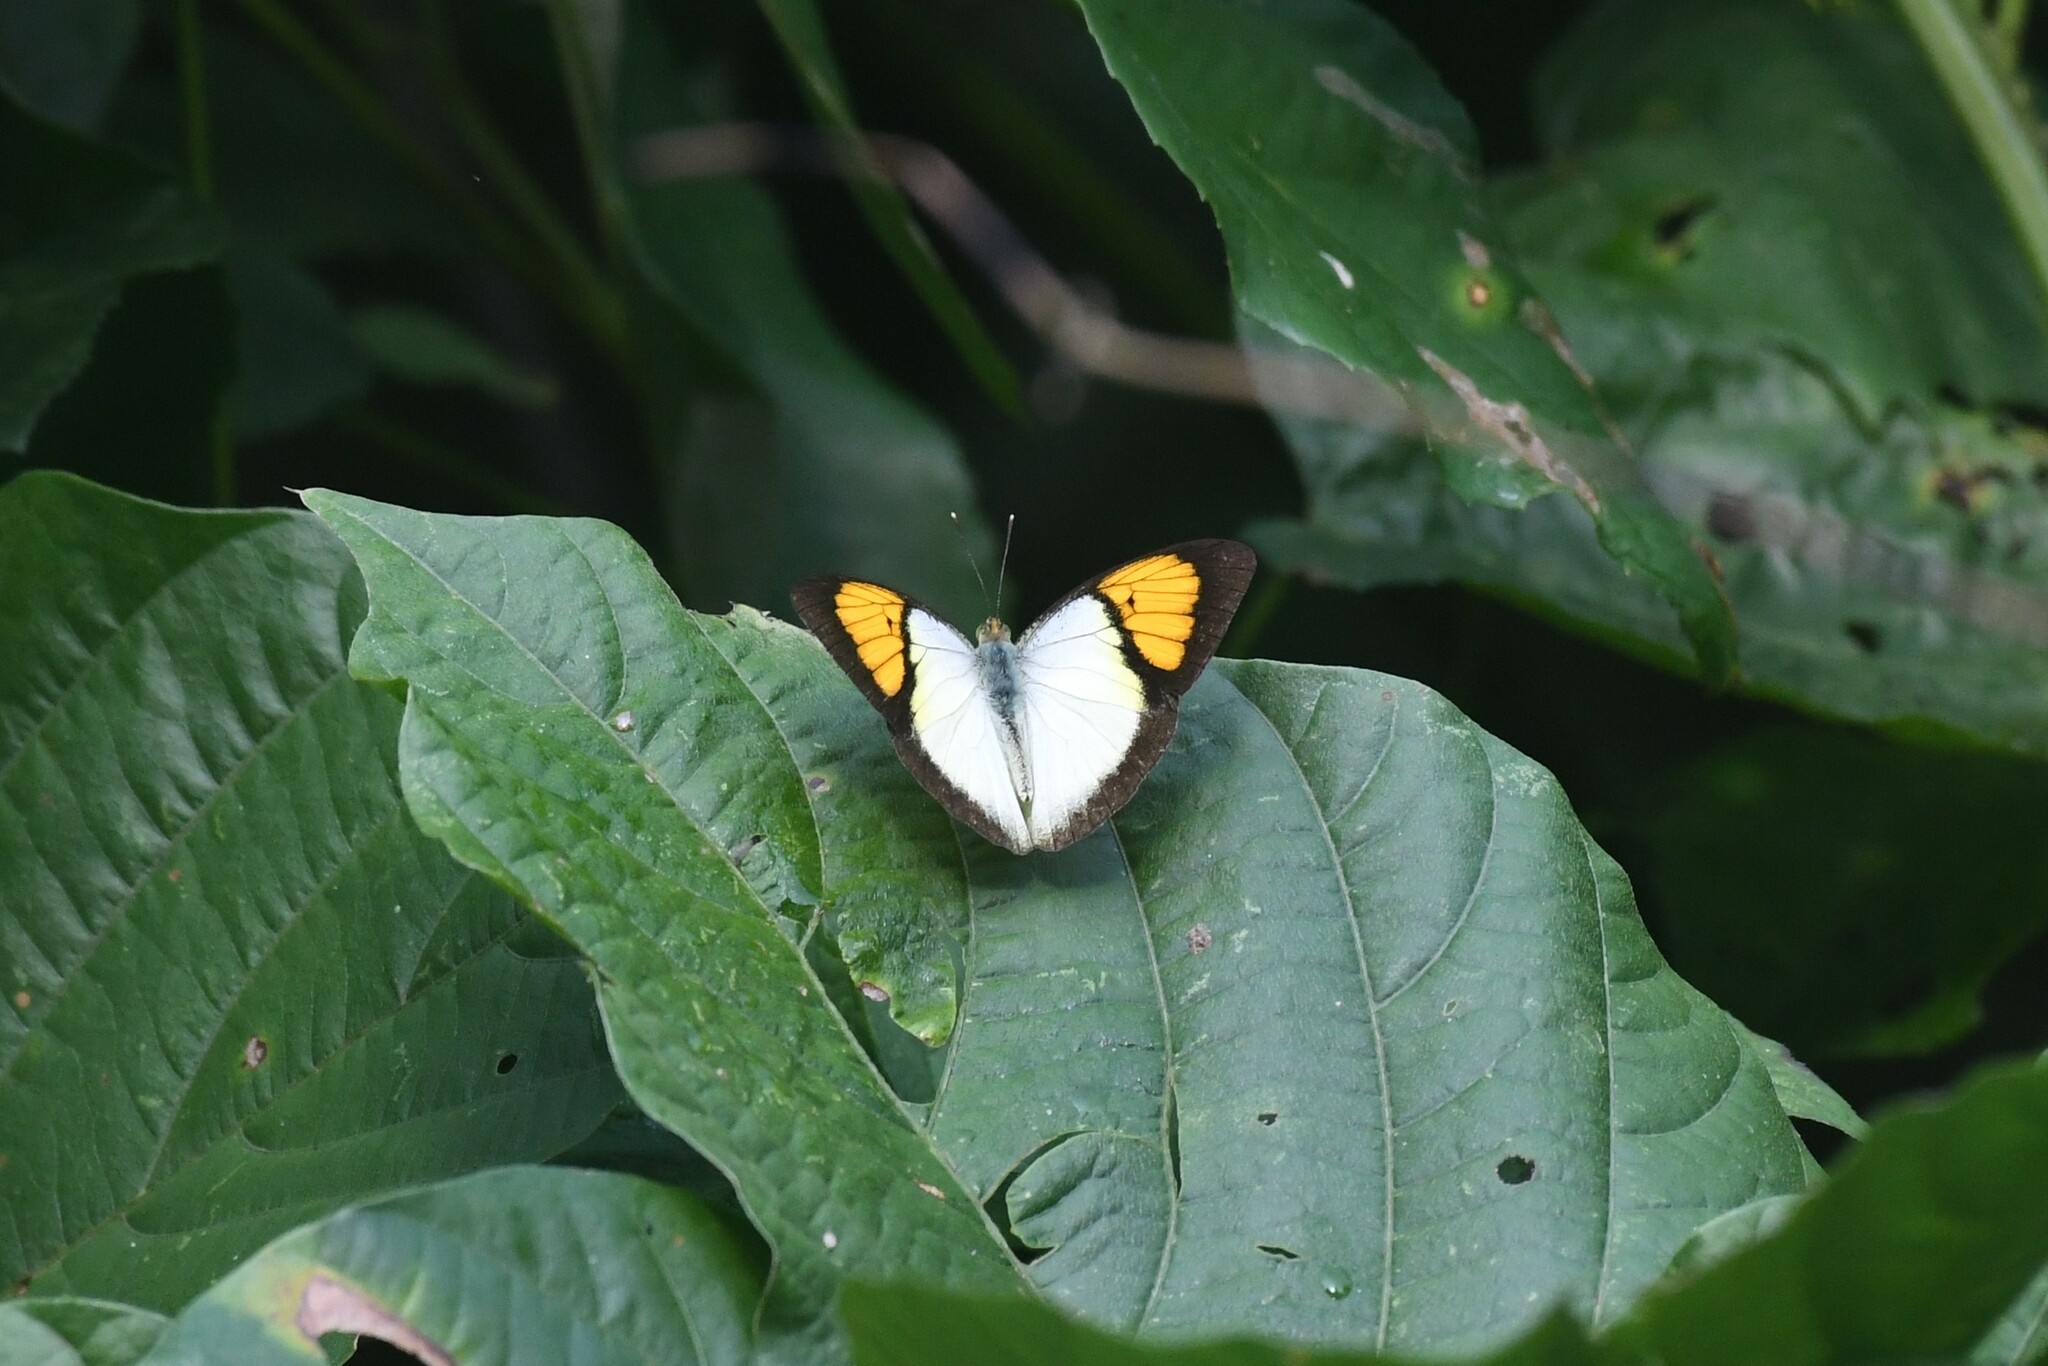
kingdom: Animalia
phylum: Arthropoda
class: Insecta
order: Lepidoptera
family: Pieridae
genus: Ixias
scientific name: Ixias pyrene
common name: Yellow orange tip
